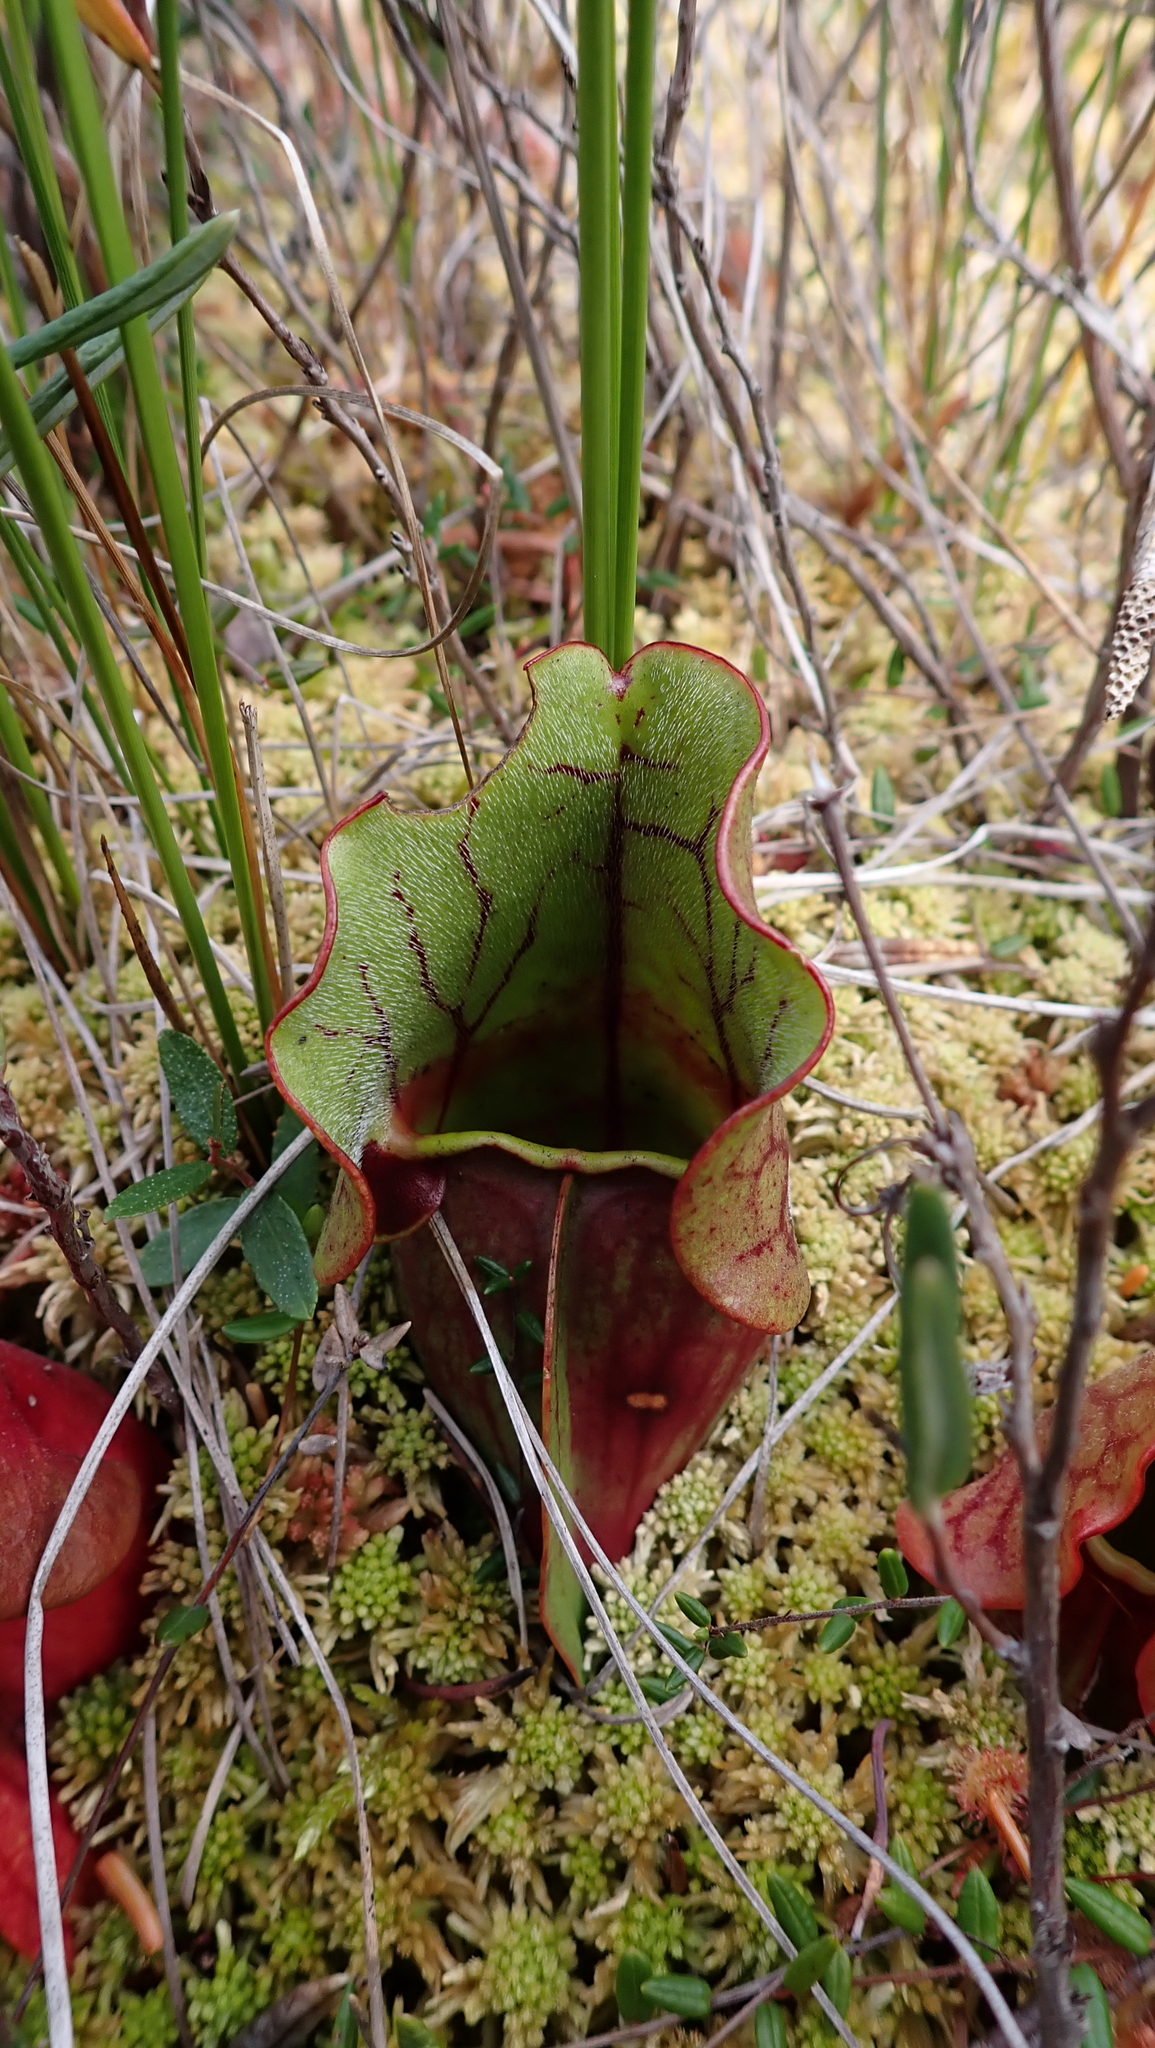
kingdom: Plantae
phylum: Tracheophyta
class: Magnoliopsida
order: Ericales
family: Sarraceniaceae
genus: Sarracenia
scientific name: Sarracenia purpurea
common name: Pitcherplant
